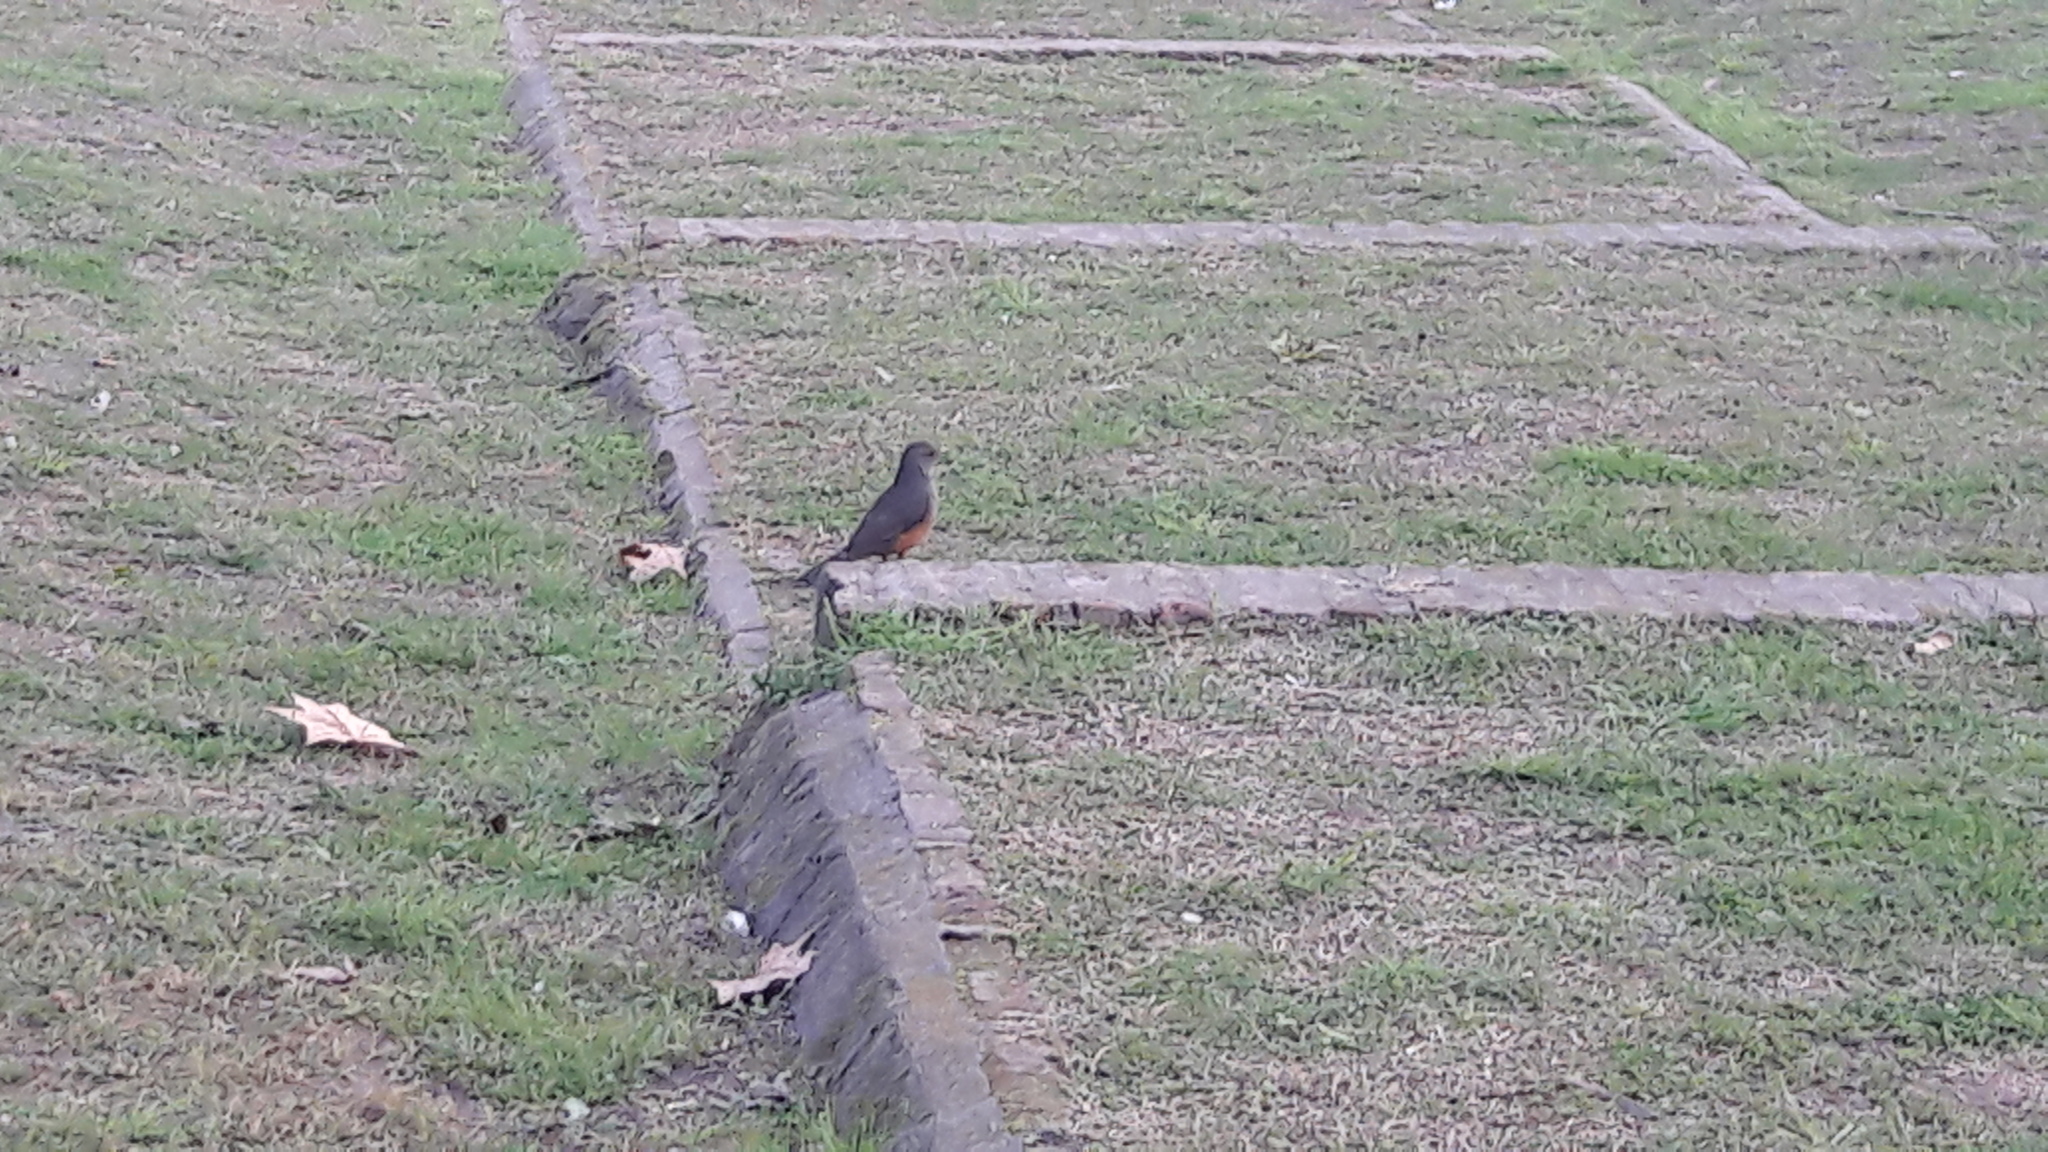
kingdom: Animalia
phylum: Chordata
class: Aves
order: Passeriformes
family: Turdidae
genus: Turdus
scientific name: Turdus rufiventris
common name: Rufous-bellied thrush
